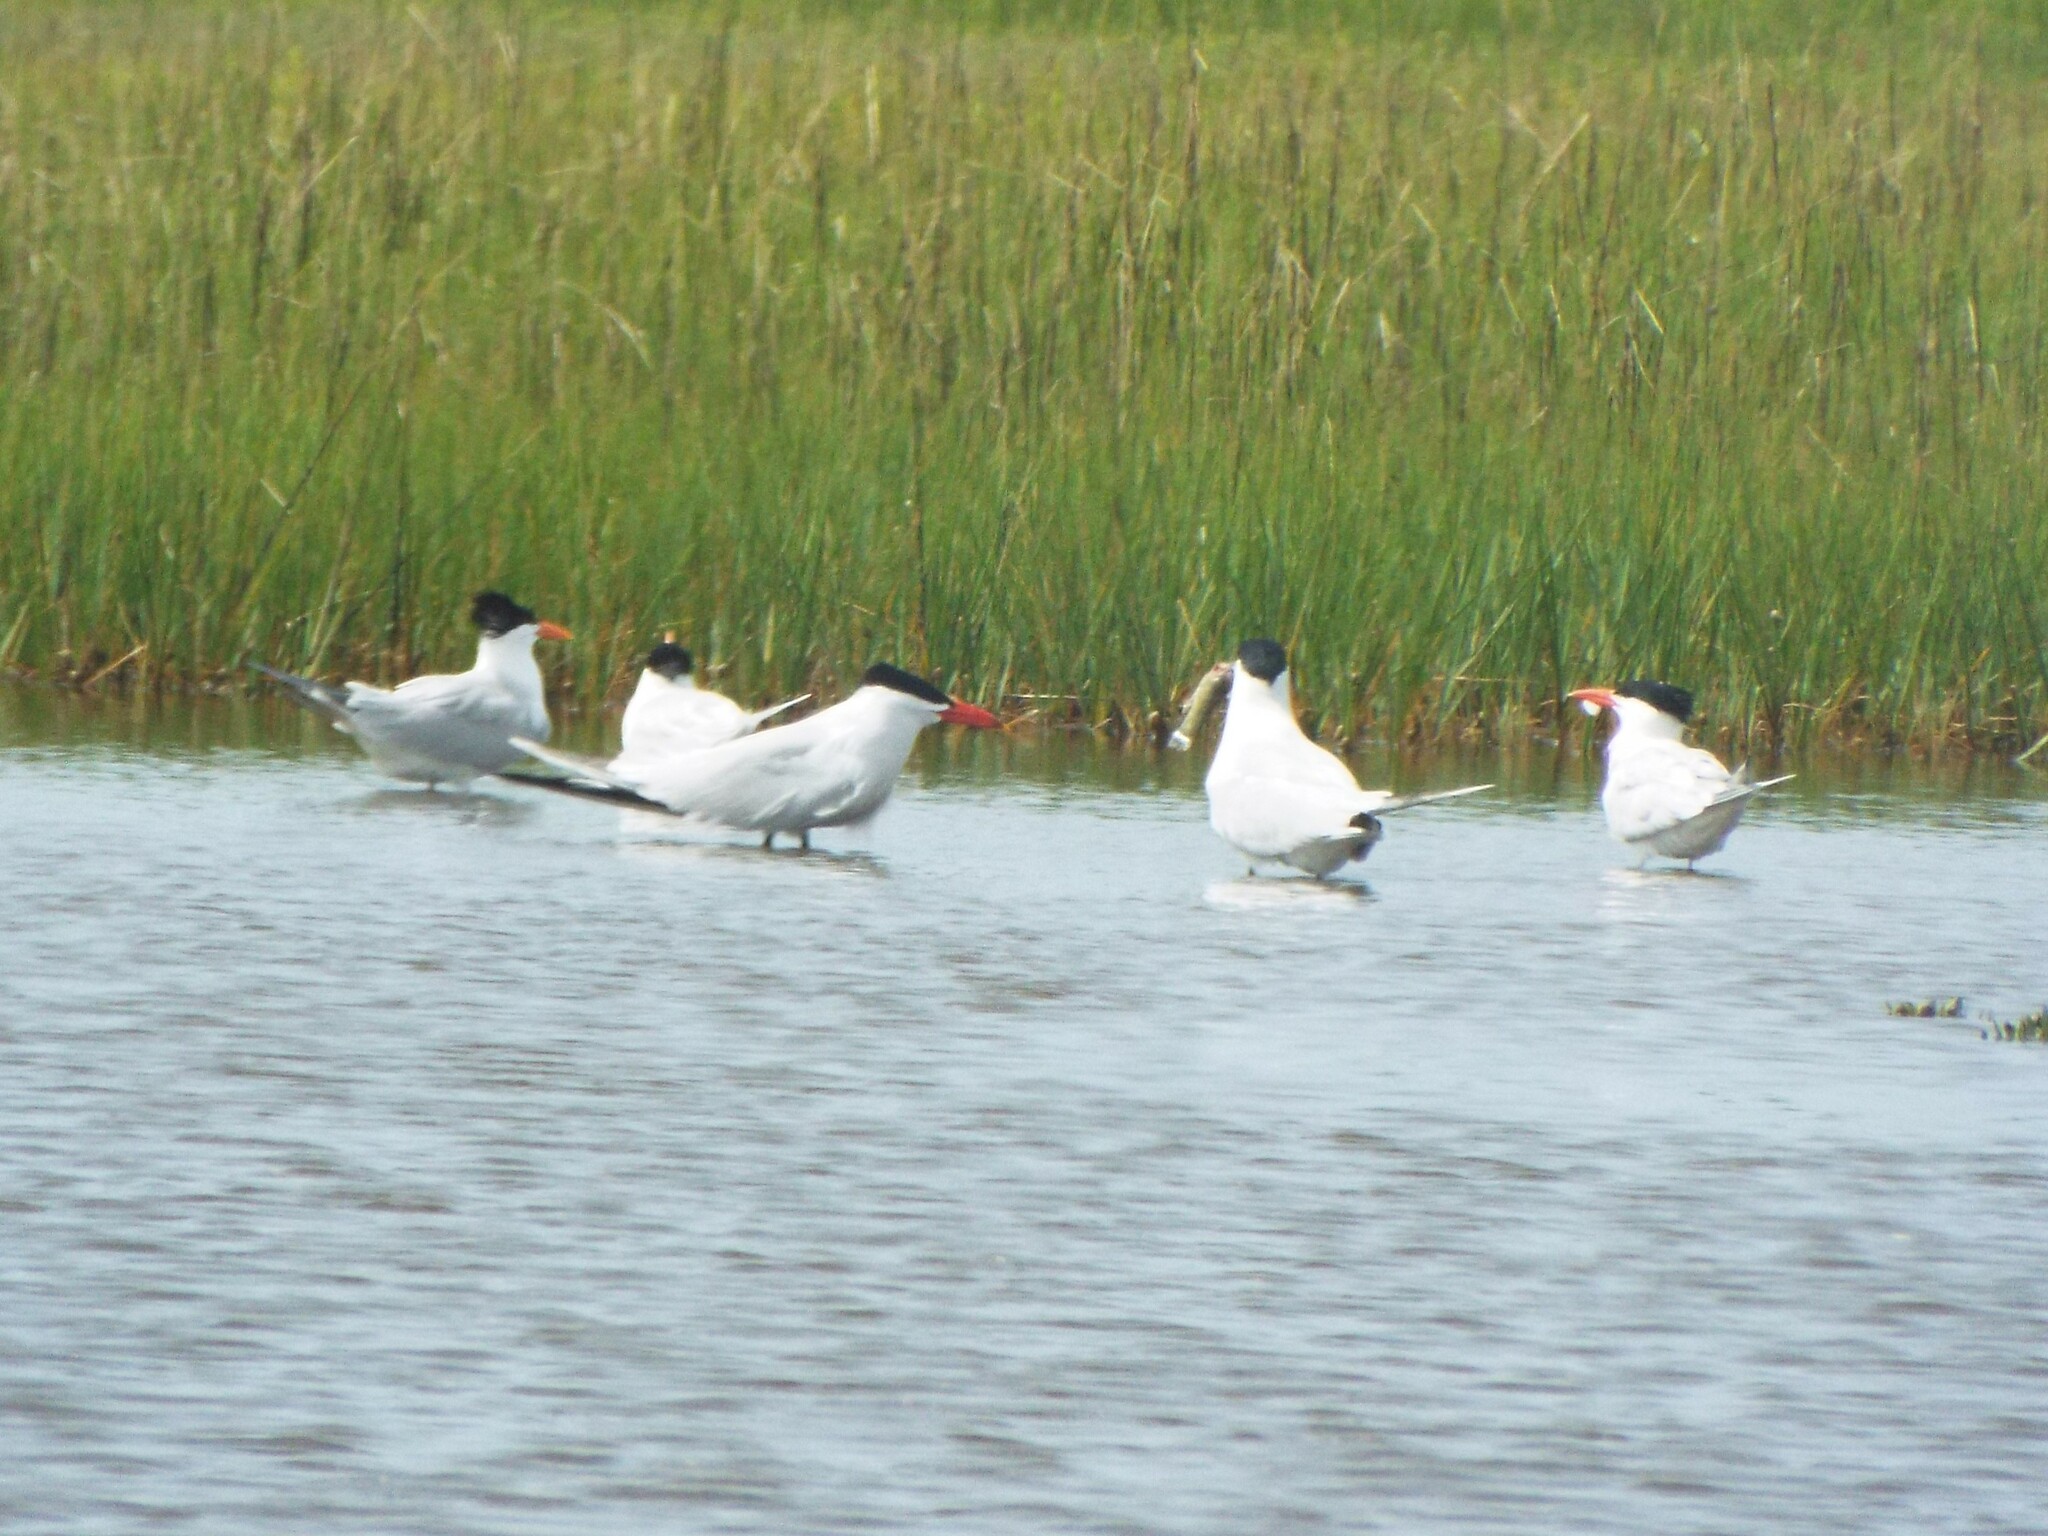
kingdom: Animalia
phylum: Chordata
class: Aves
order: Charadriiformes
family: Laridae
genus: Thalasseus
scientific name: Thalasseus maximus
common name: Royal tern
